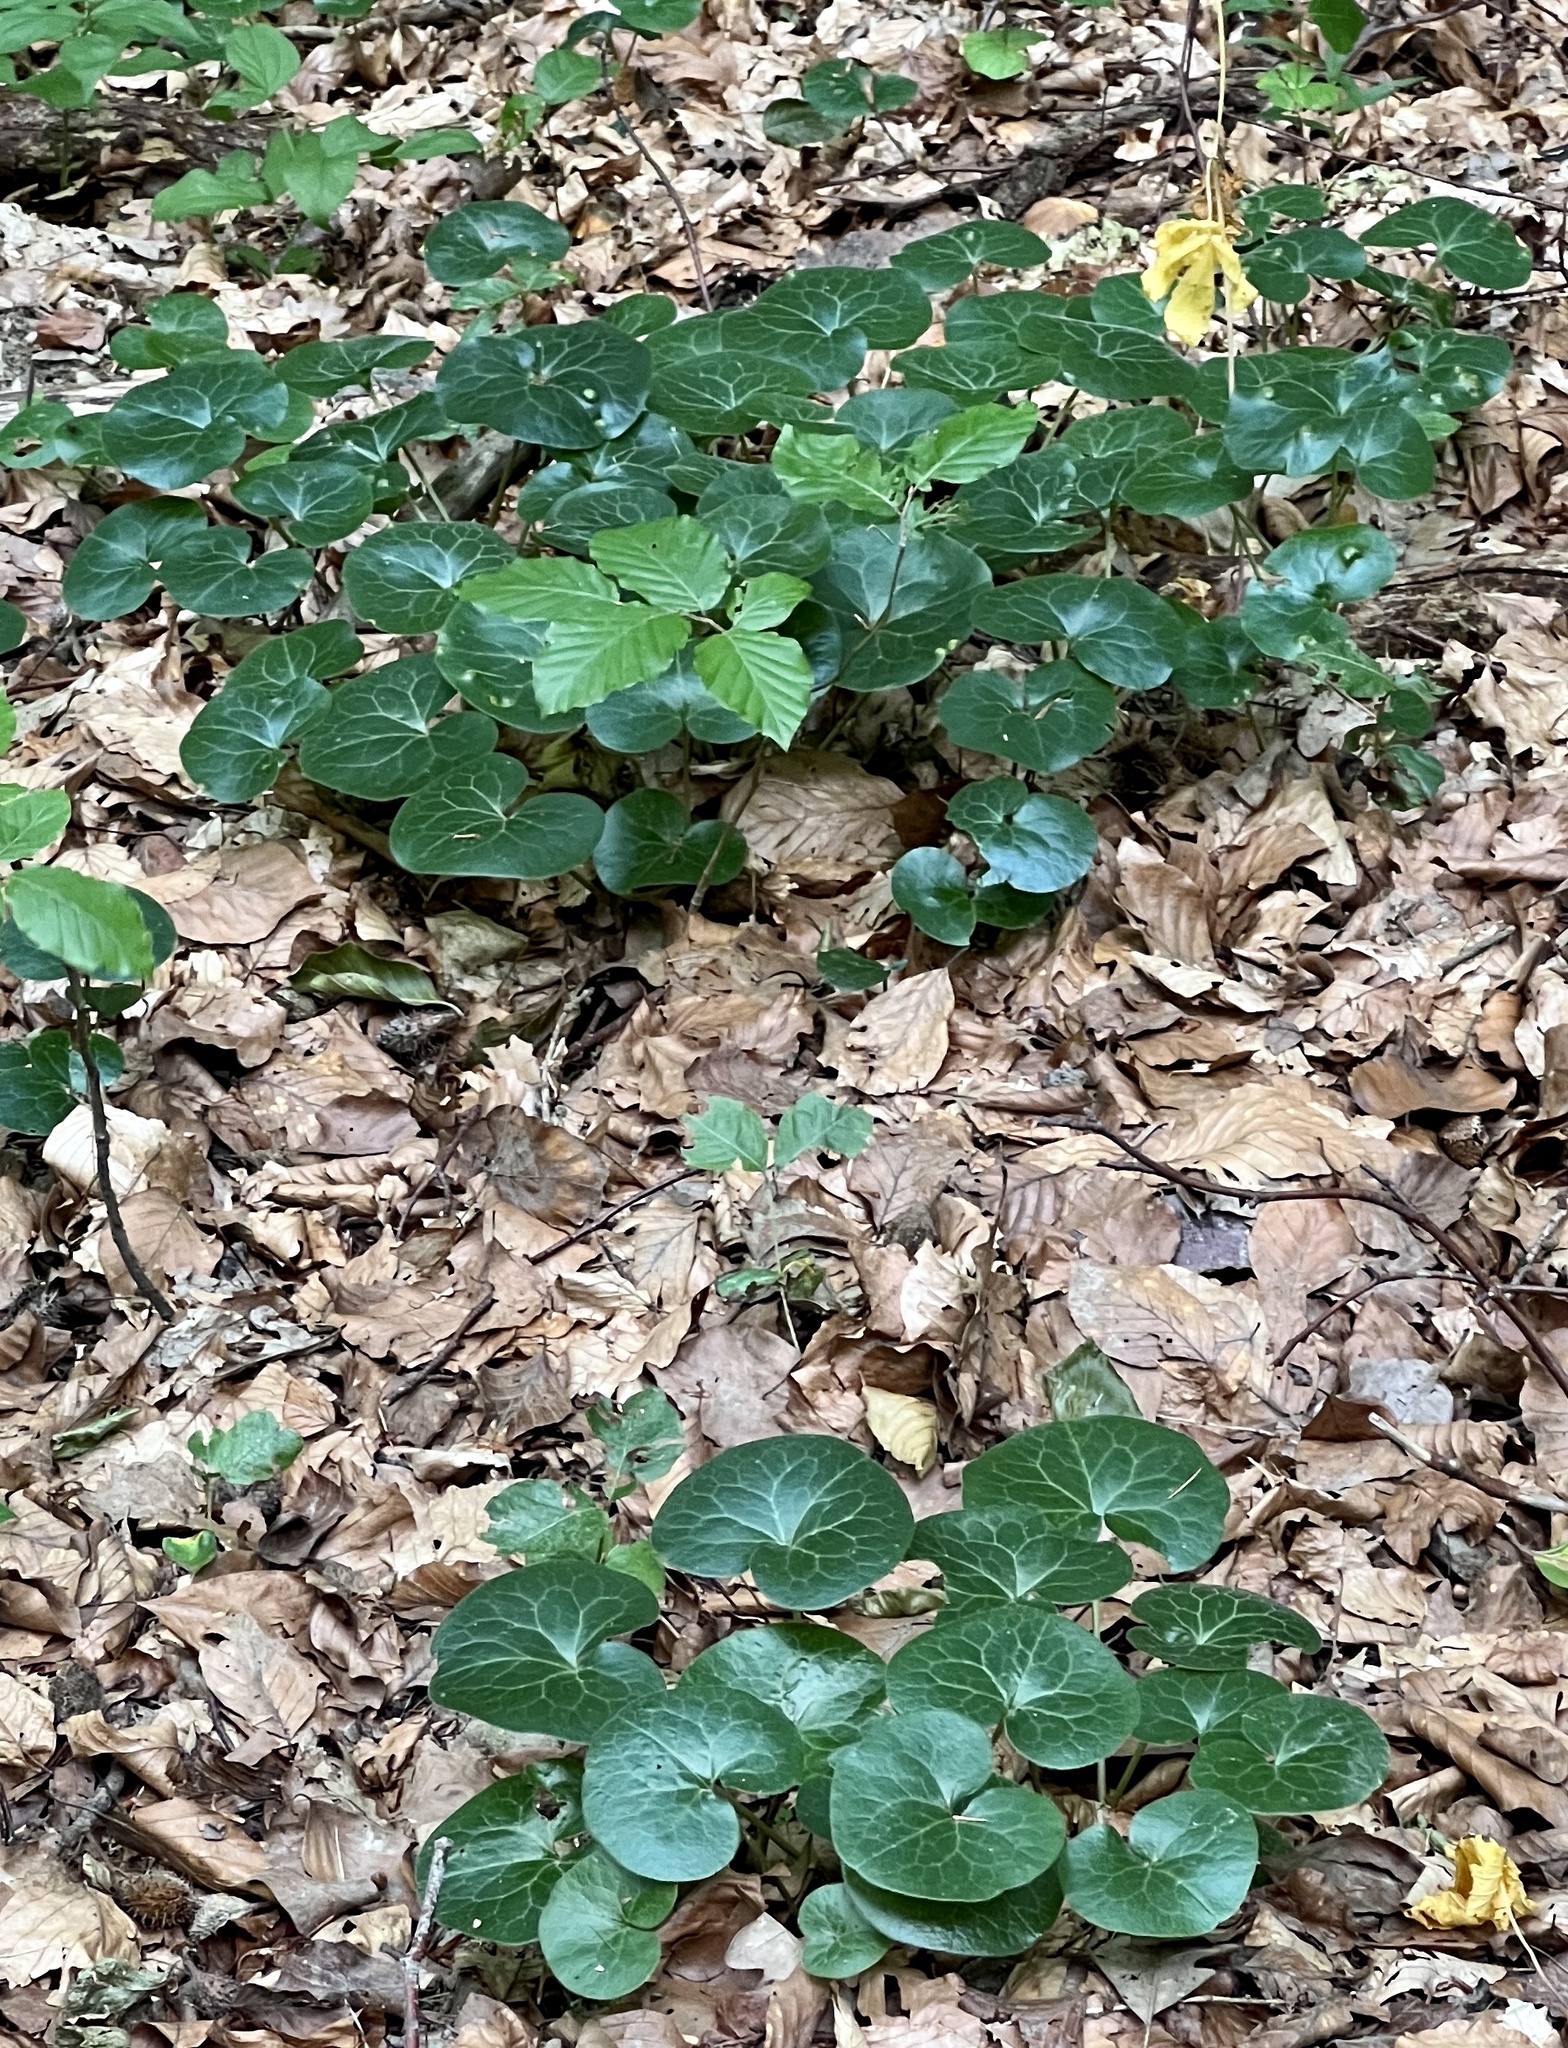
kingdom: Plantae
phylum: Tracheophyta
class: Magnoliopsida
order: Piperales
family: Aristolochiaceae
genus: Asarum
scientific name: Asarum europaeum
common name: Asarabacca
